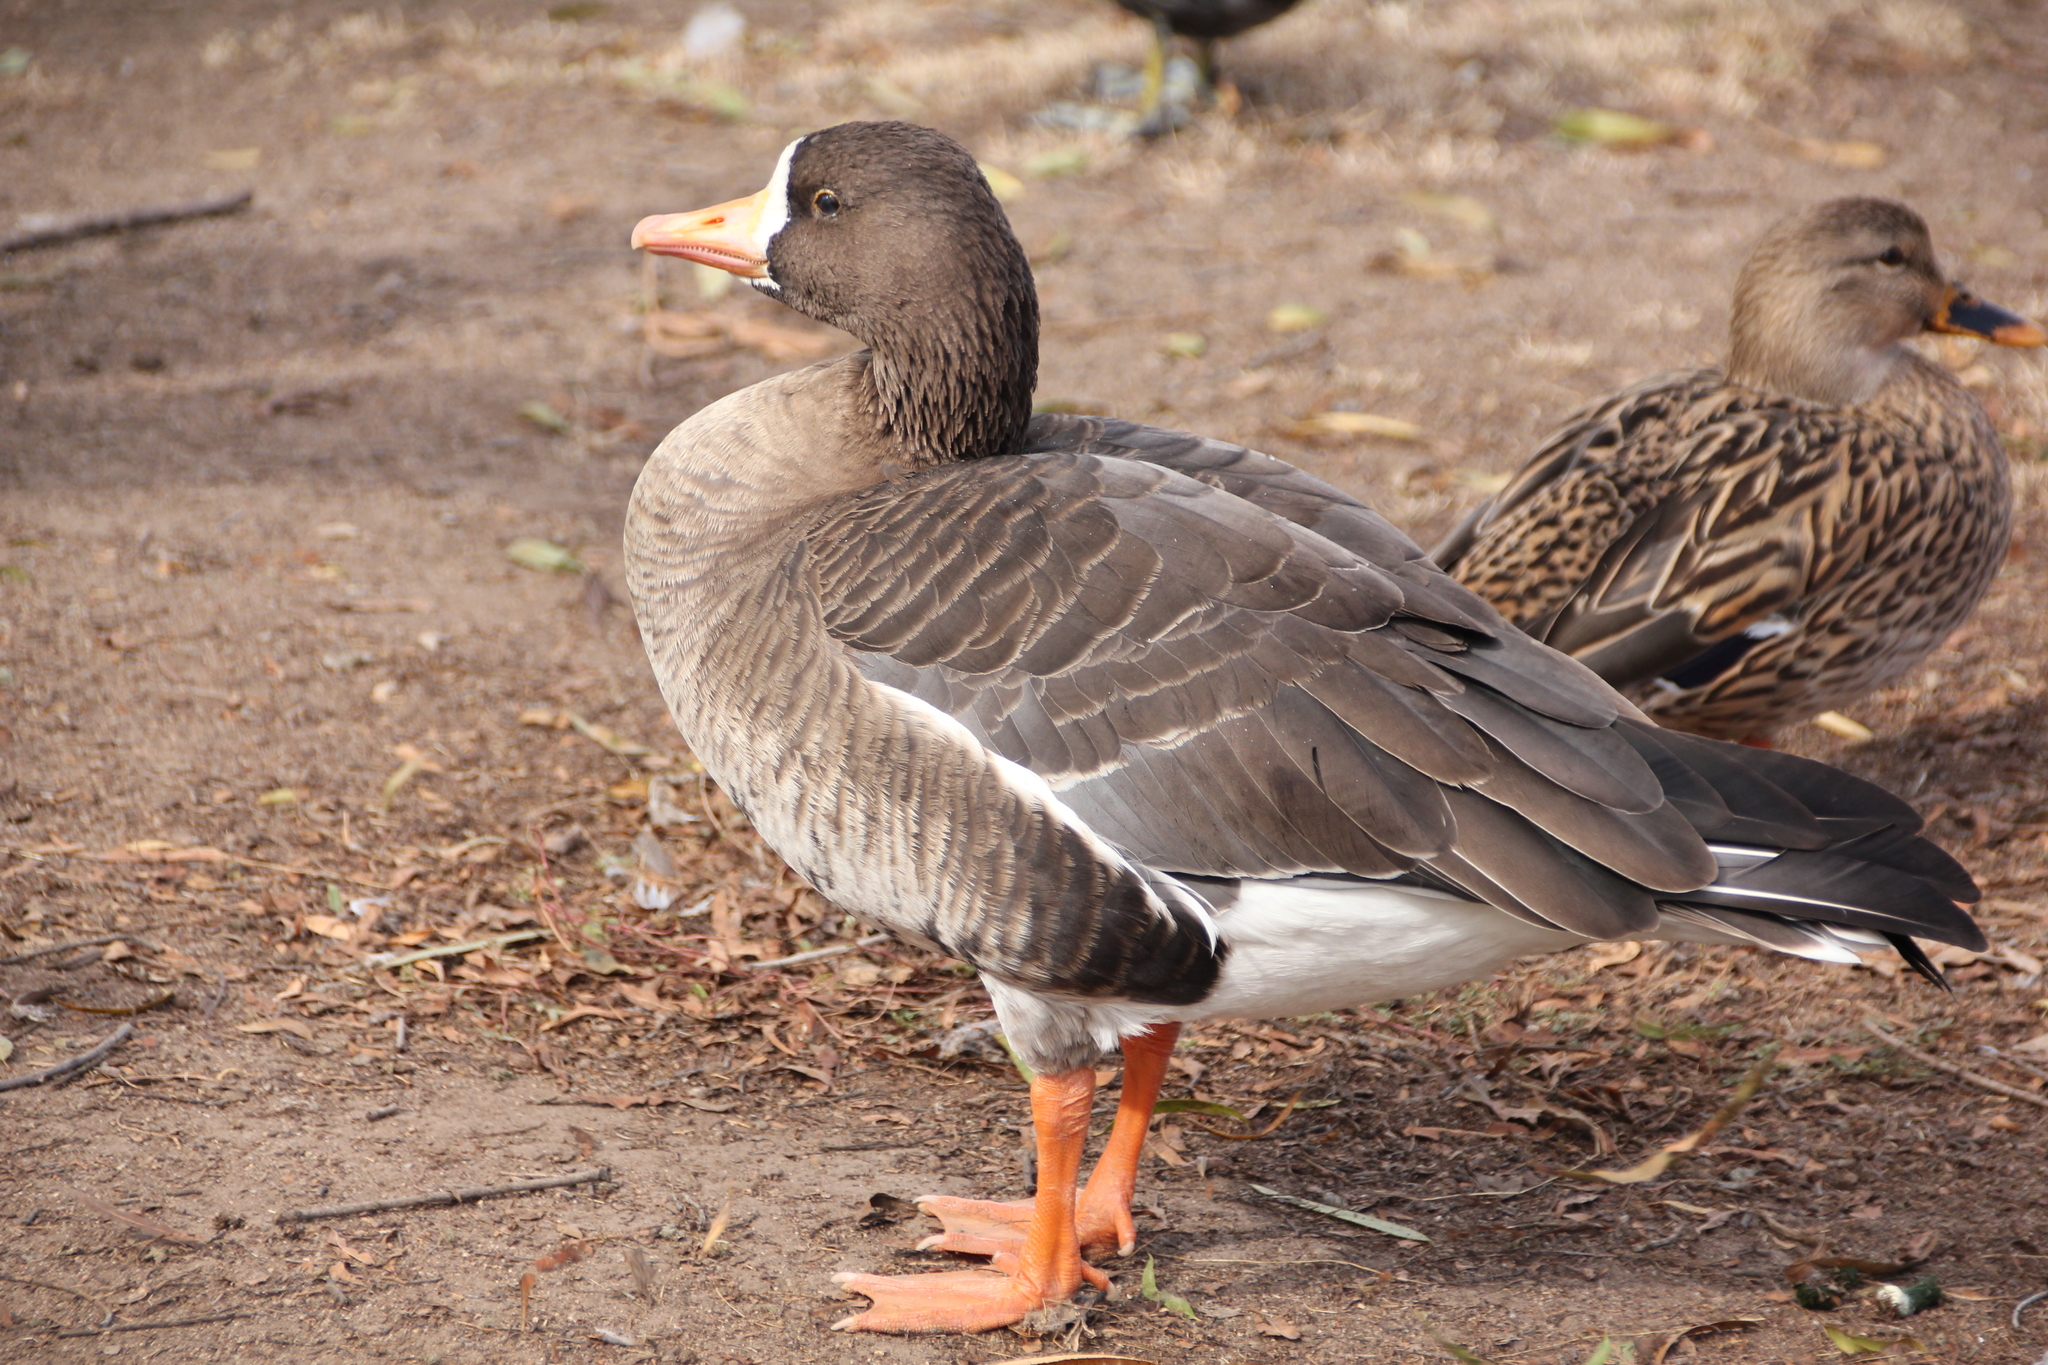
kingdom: Animalia
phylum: Chordata
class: Aves
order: Anseriformes
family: Anatidae
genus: Anser
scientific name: Anser albifrons
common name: Greater white-fronted goose
